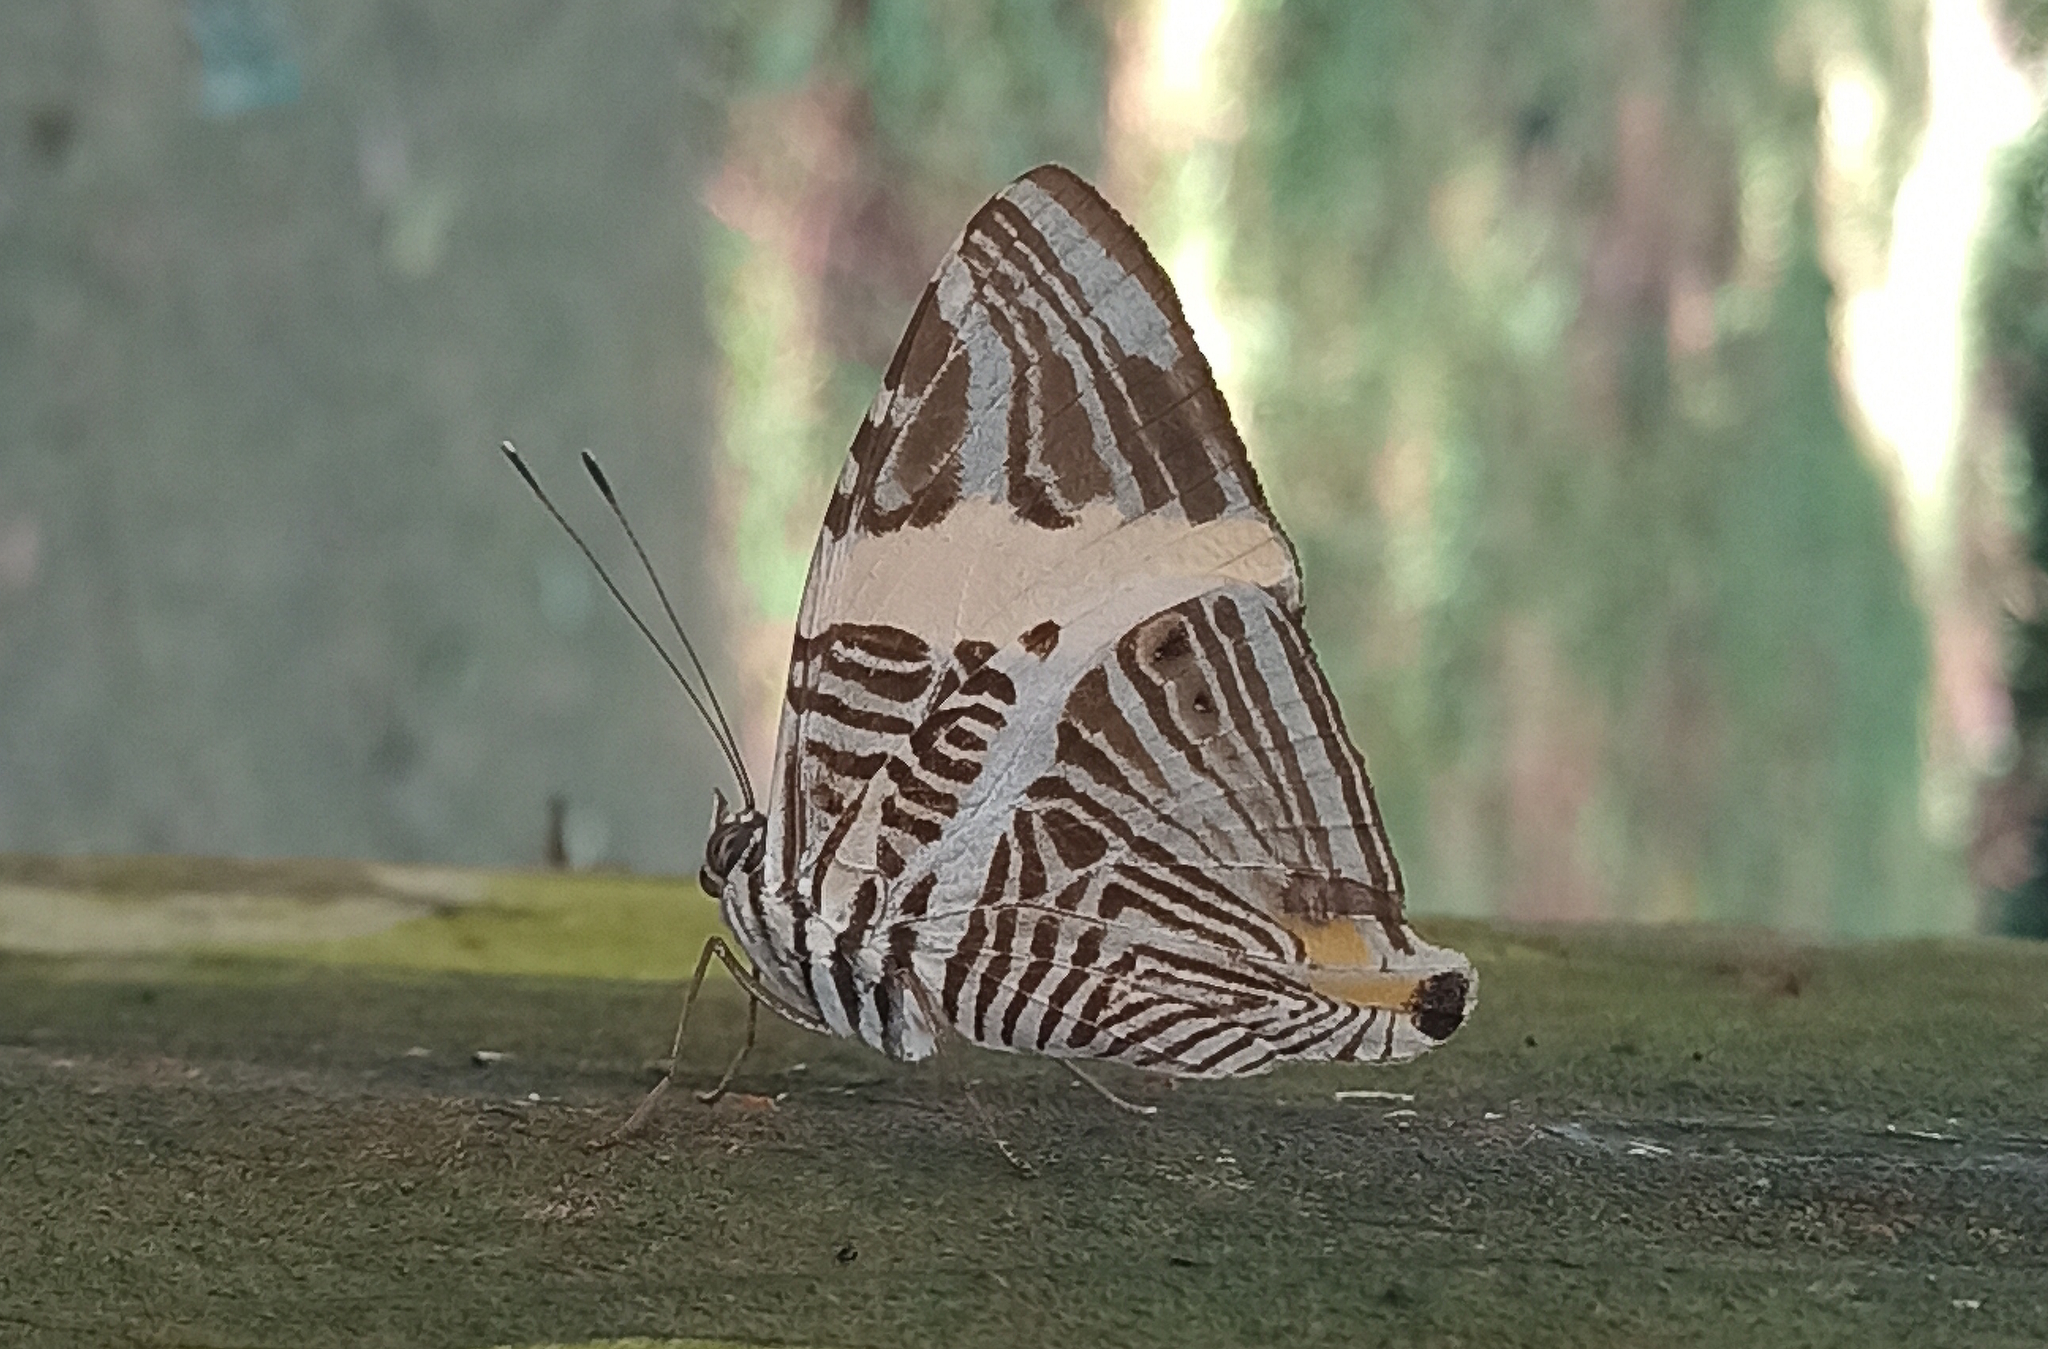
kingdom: Animalia
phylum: Arthropoda
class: Insecta
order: Lepidoptera
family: Nymphalidae
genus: Colobura
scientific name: Colobura dirce
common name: Dirce beauty
